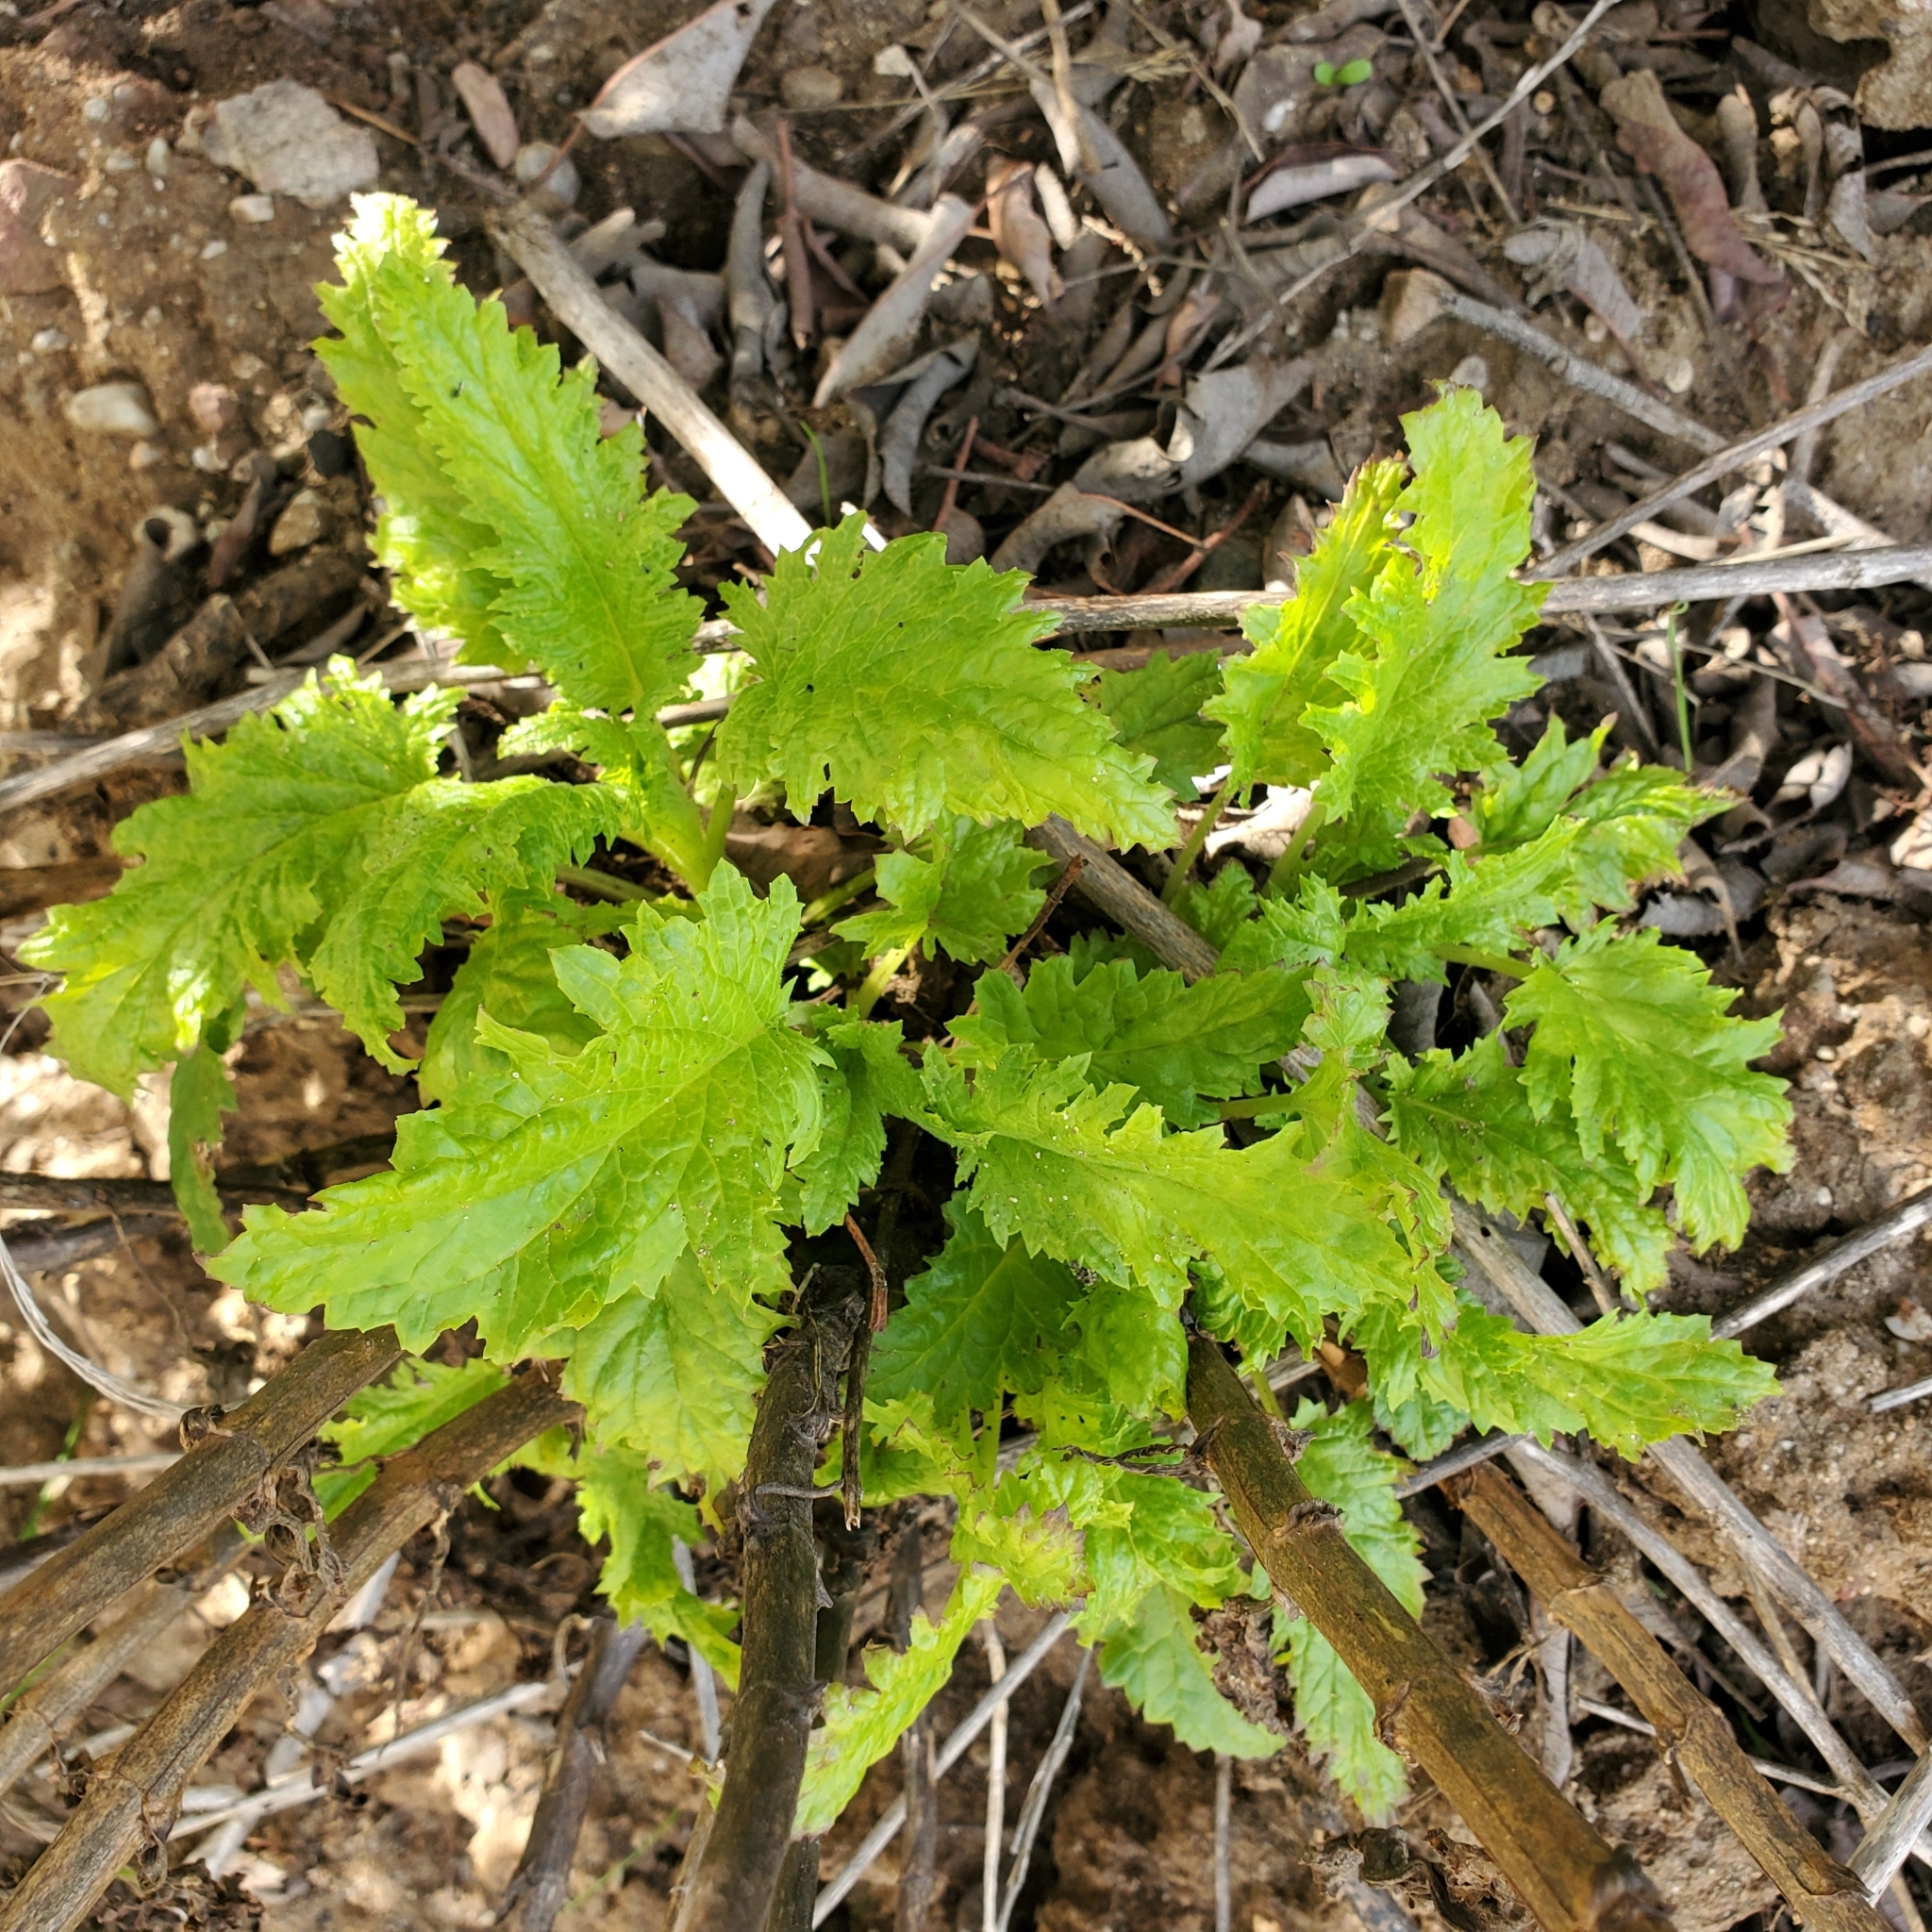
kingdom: Plantae
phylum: Tracheophyta
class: Magnoliopsida
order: Lamiales
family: Scrophulariaceae
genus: Scrophularia
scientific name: Scrophularia californica
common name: California figwort
